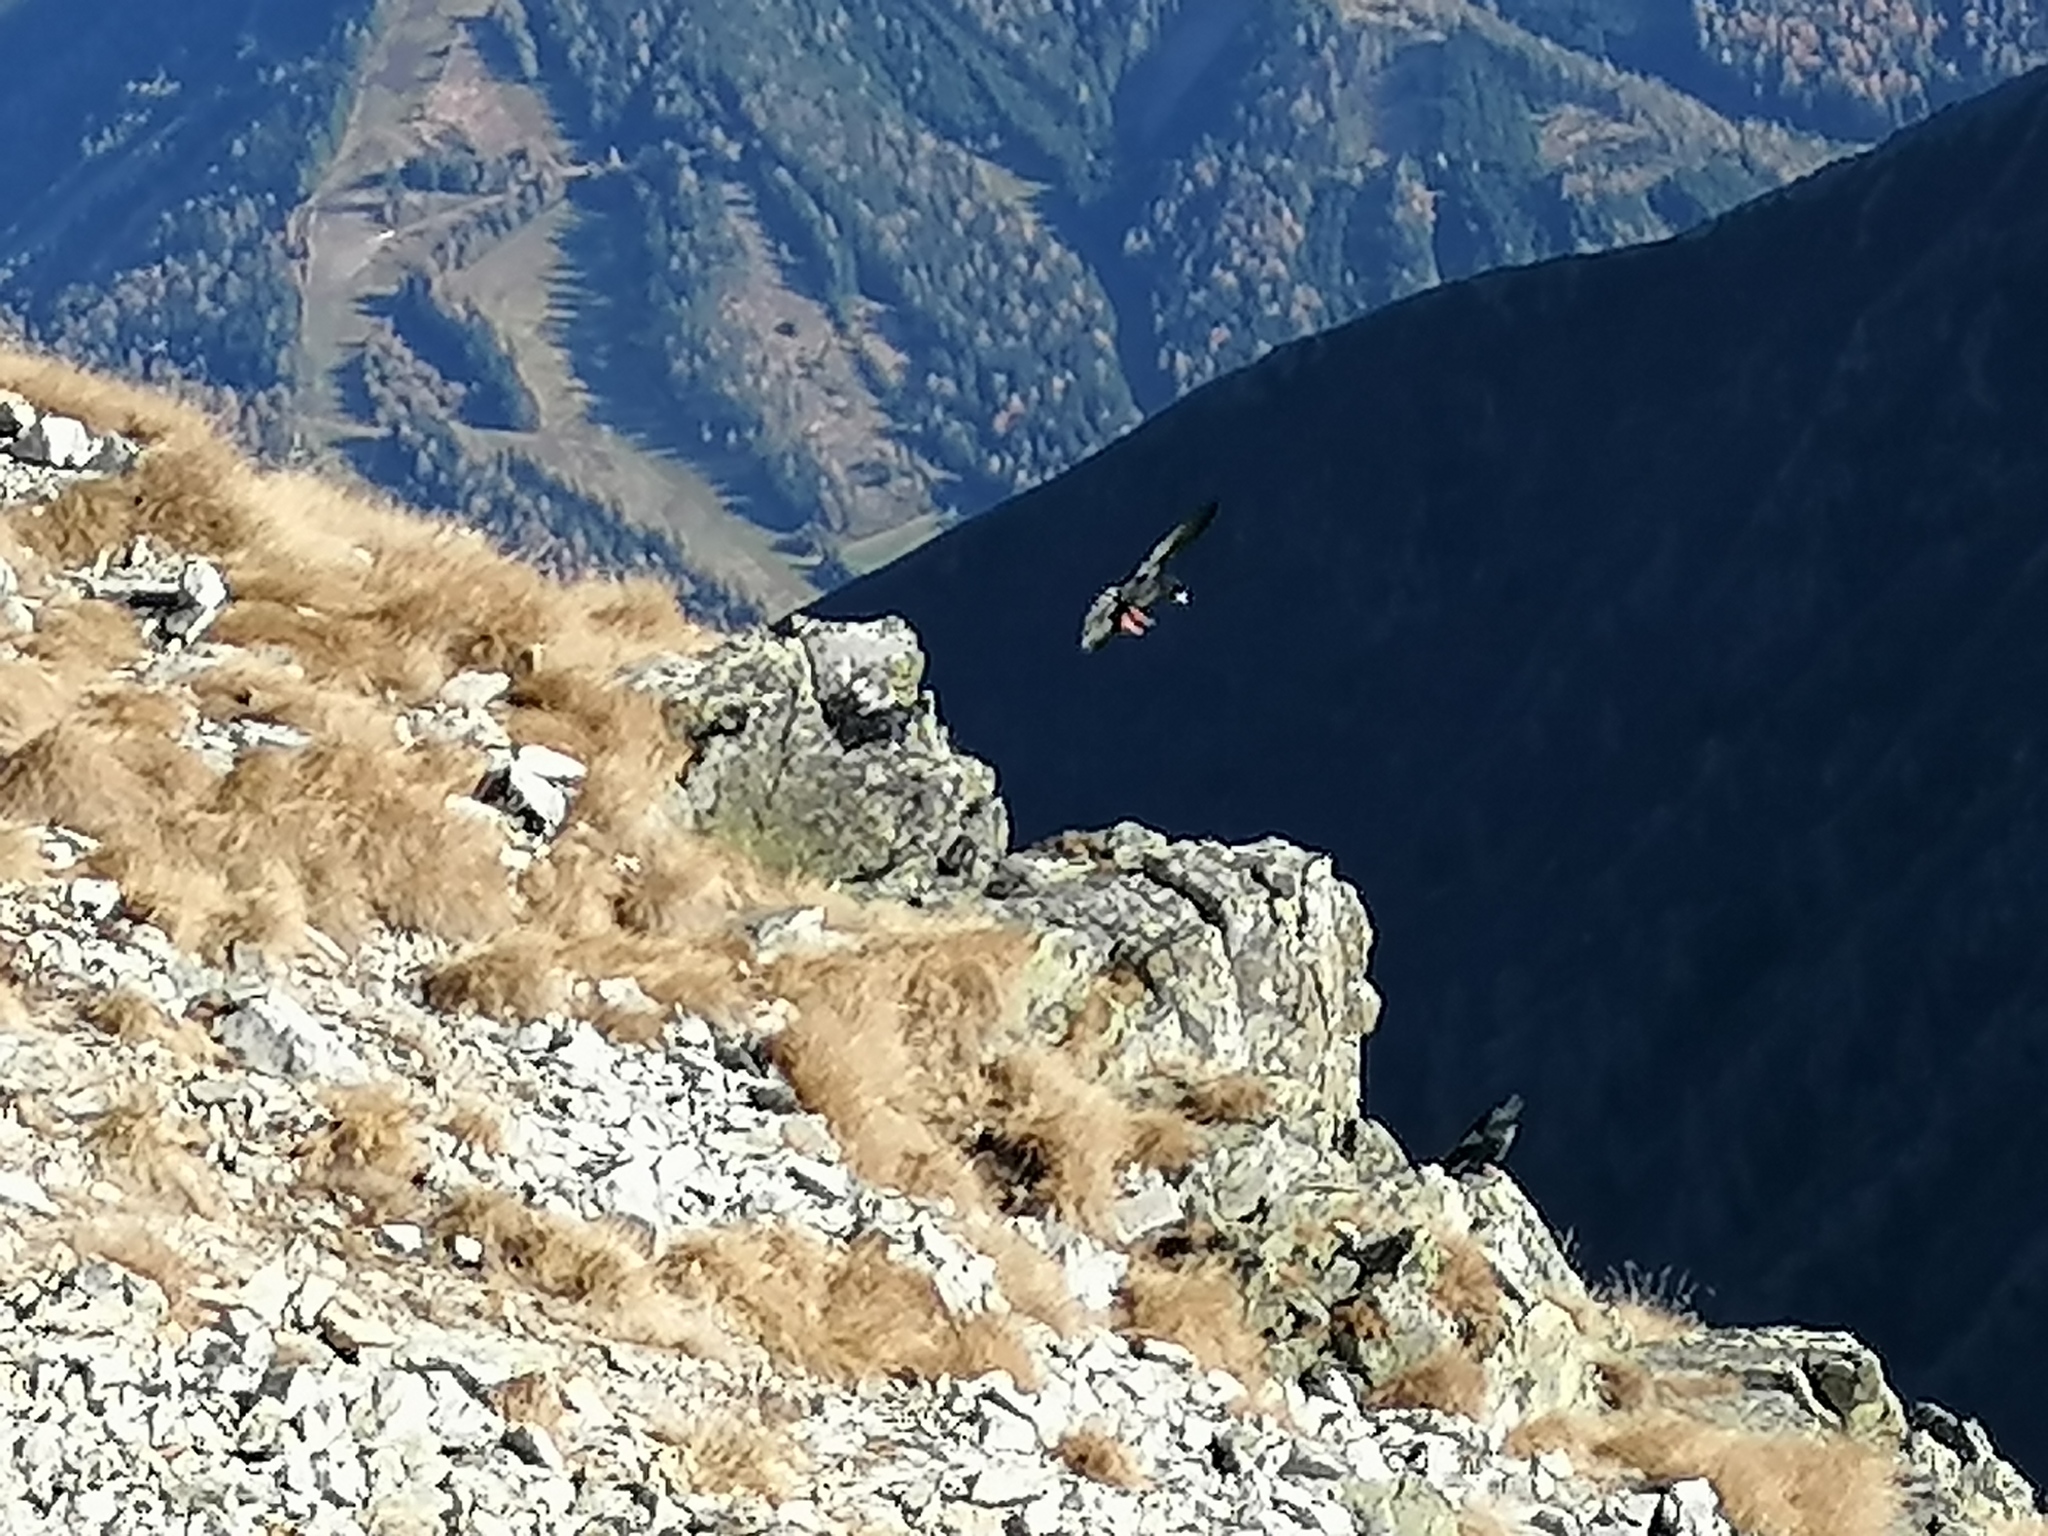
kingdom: Animalia
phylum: Chordata
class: Aves
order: Passeriformes
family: Corvidae
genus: Pyrrhocorax
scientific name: Pyrrhocorax graculus
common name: Alpine chough
